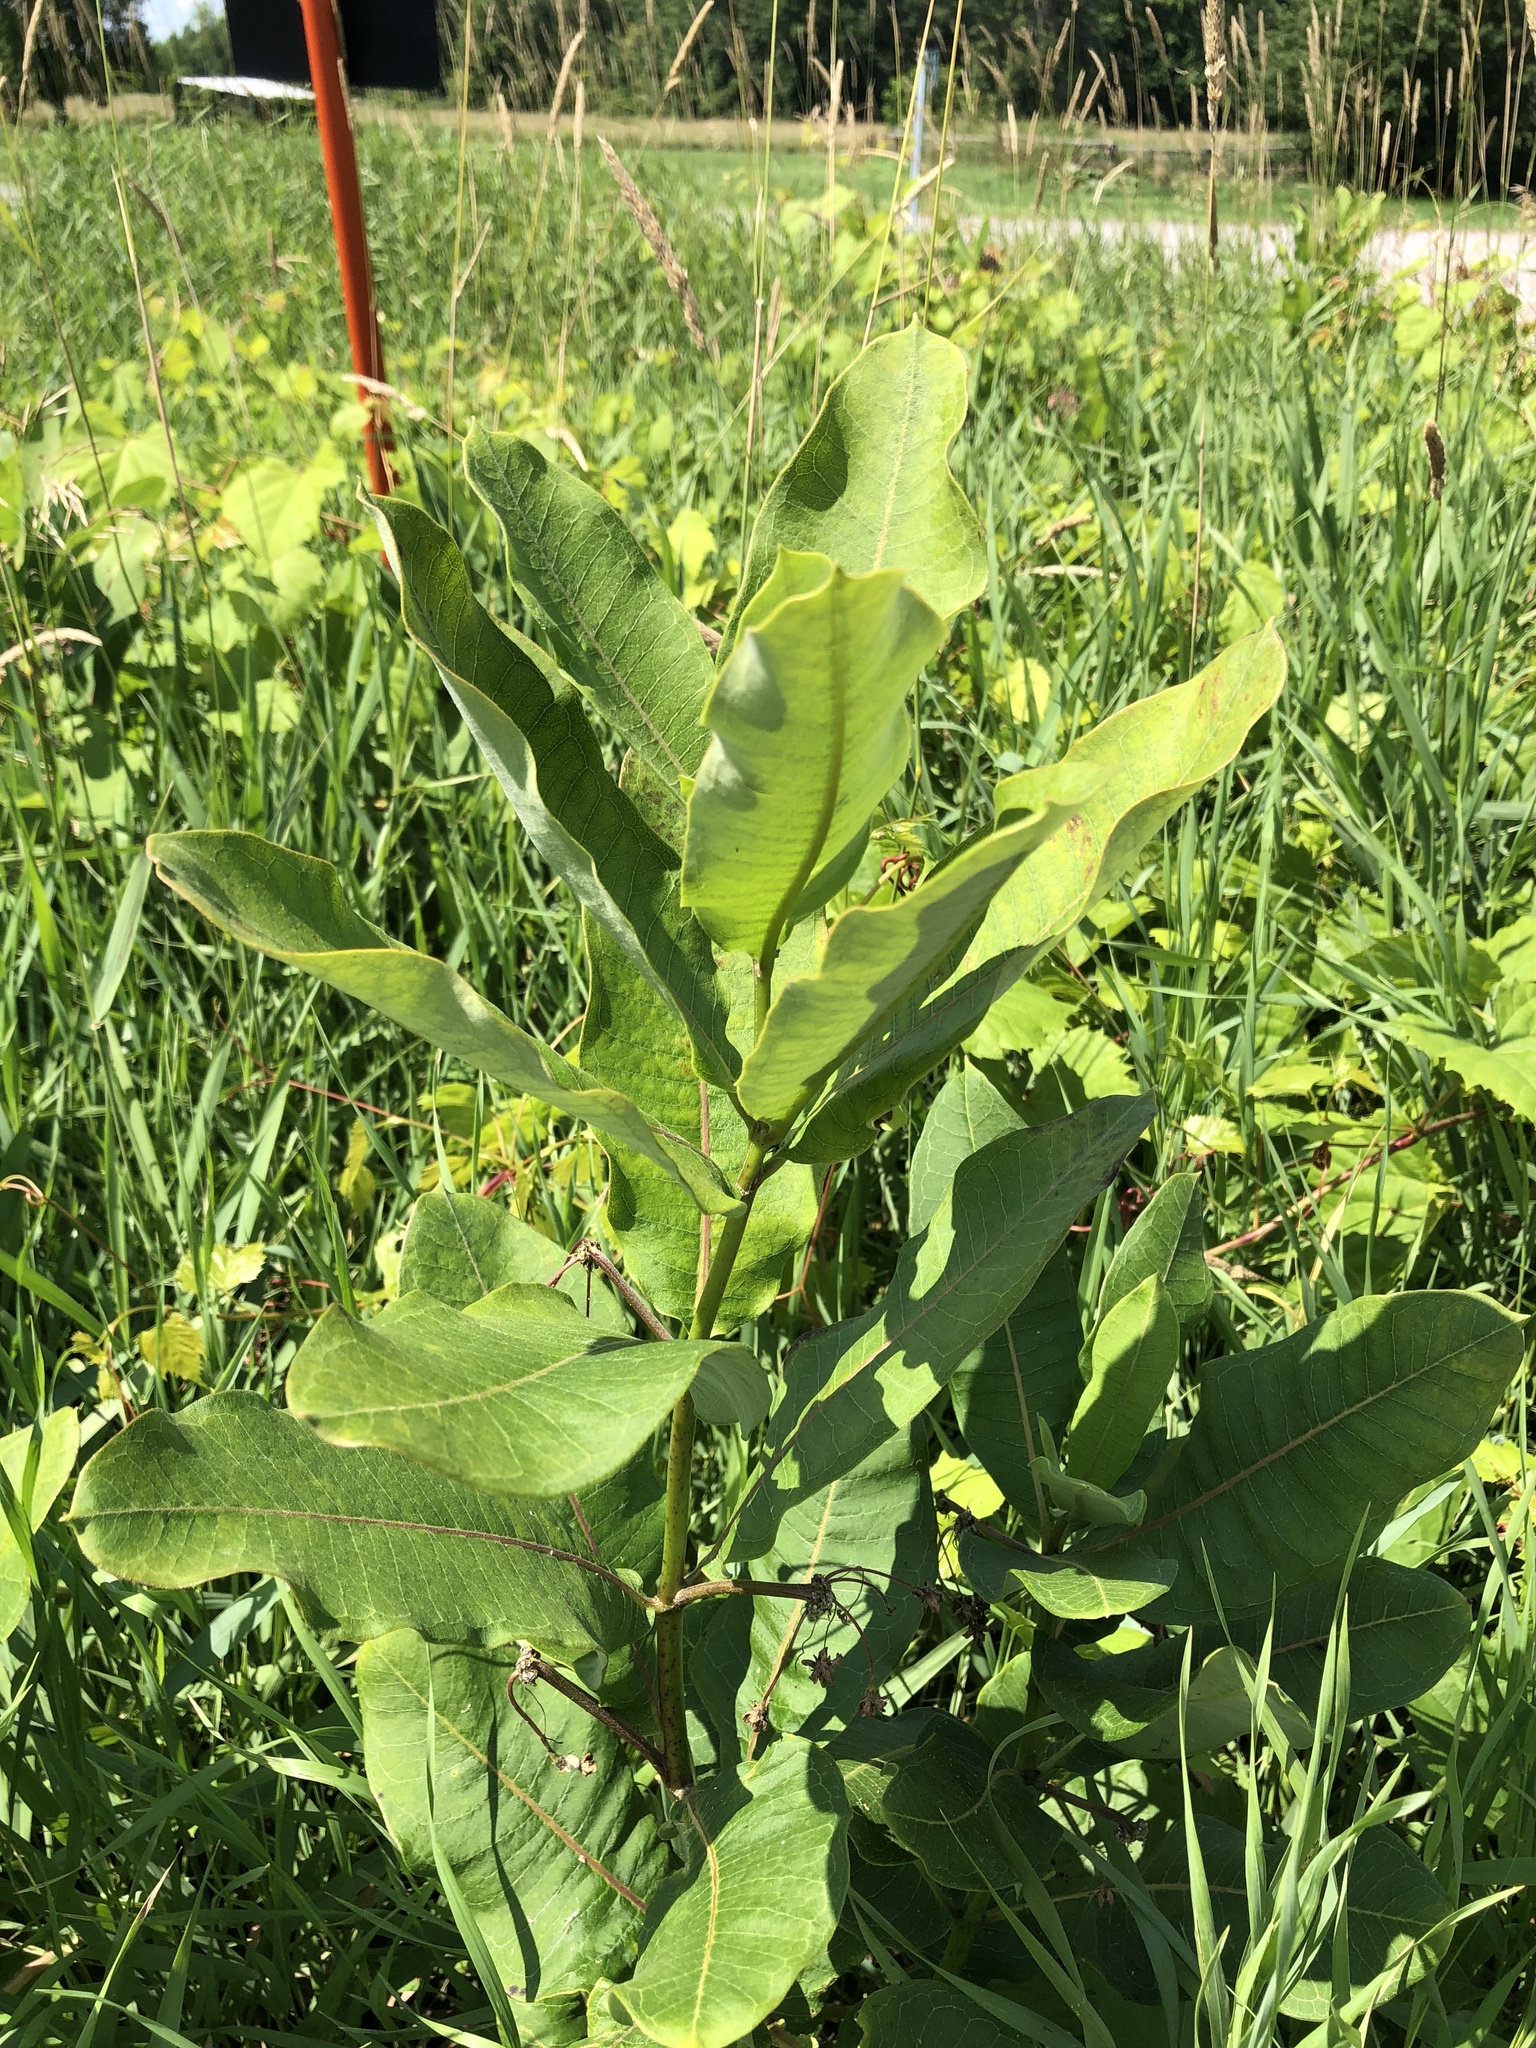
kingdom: Plantae
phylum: Tracheophyta
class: Magnoliopsida
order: Gentianales
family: Apocynaceae
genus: Asclepias
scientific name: Asclepias syriaca
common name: Common milkweed
